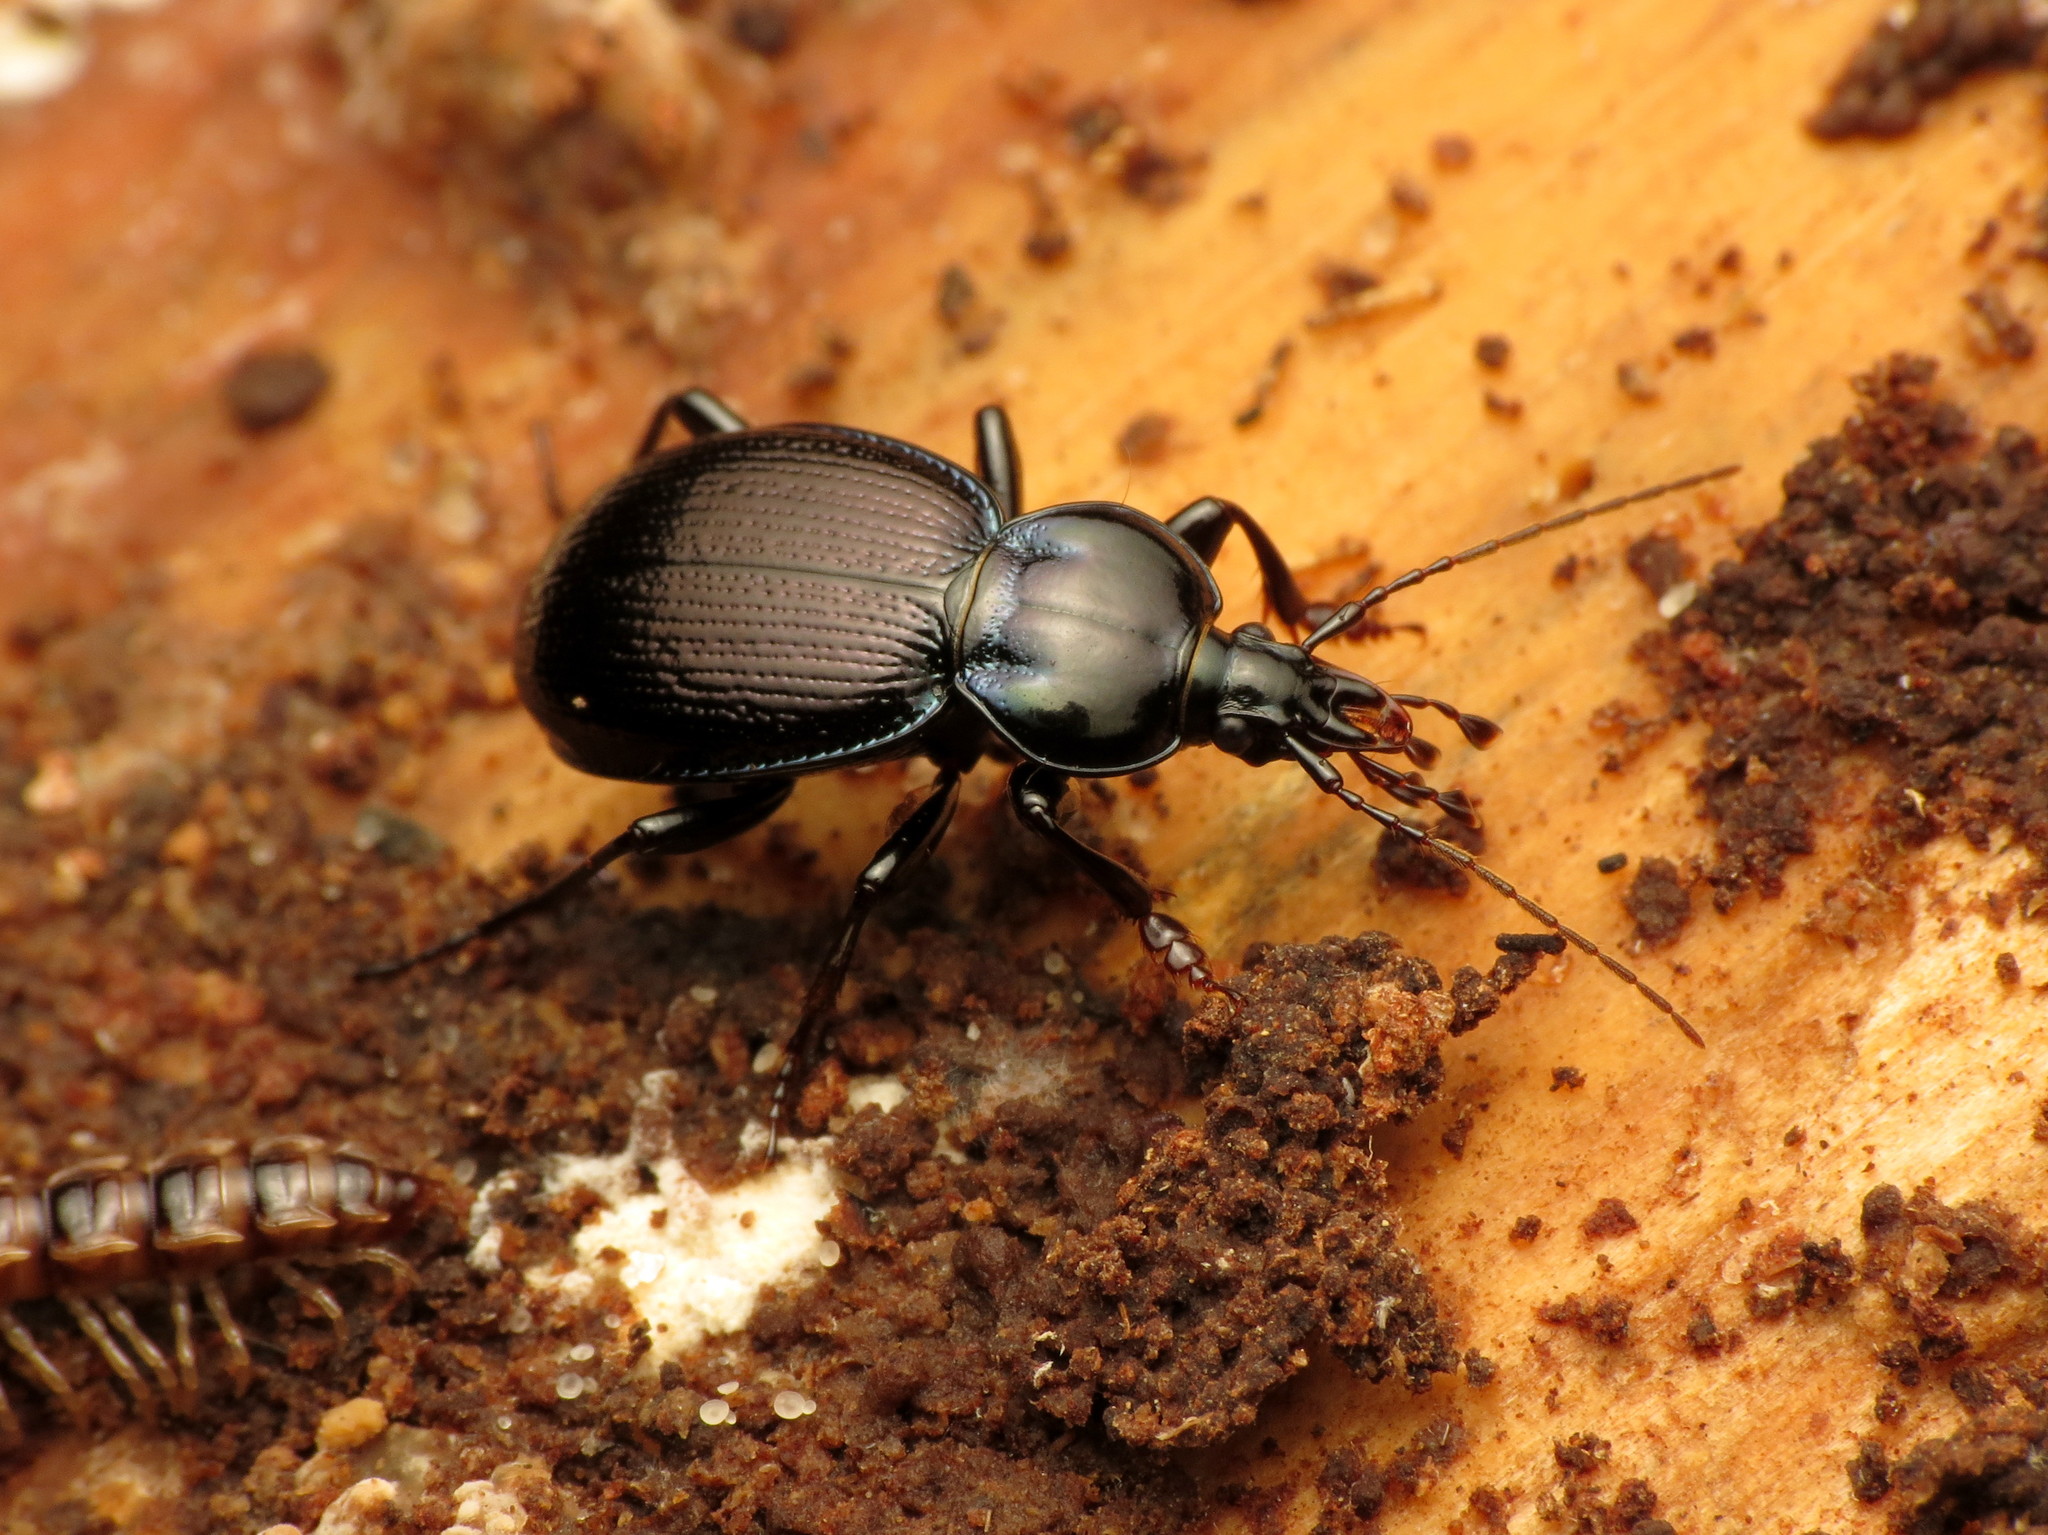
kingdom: Animalia
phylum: Arthropoda
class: Insecta
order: Coleoptera
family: Carabidae
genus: Sphaeroderus
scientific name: Sphaeroderus stenostomus
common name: Small snail-eating ground beetle
